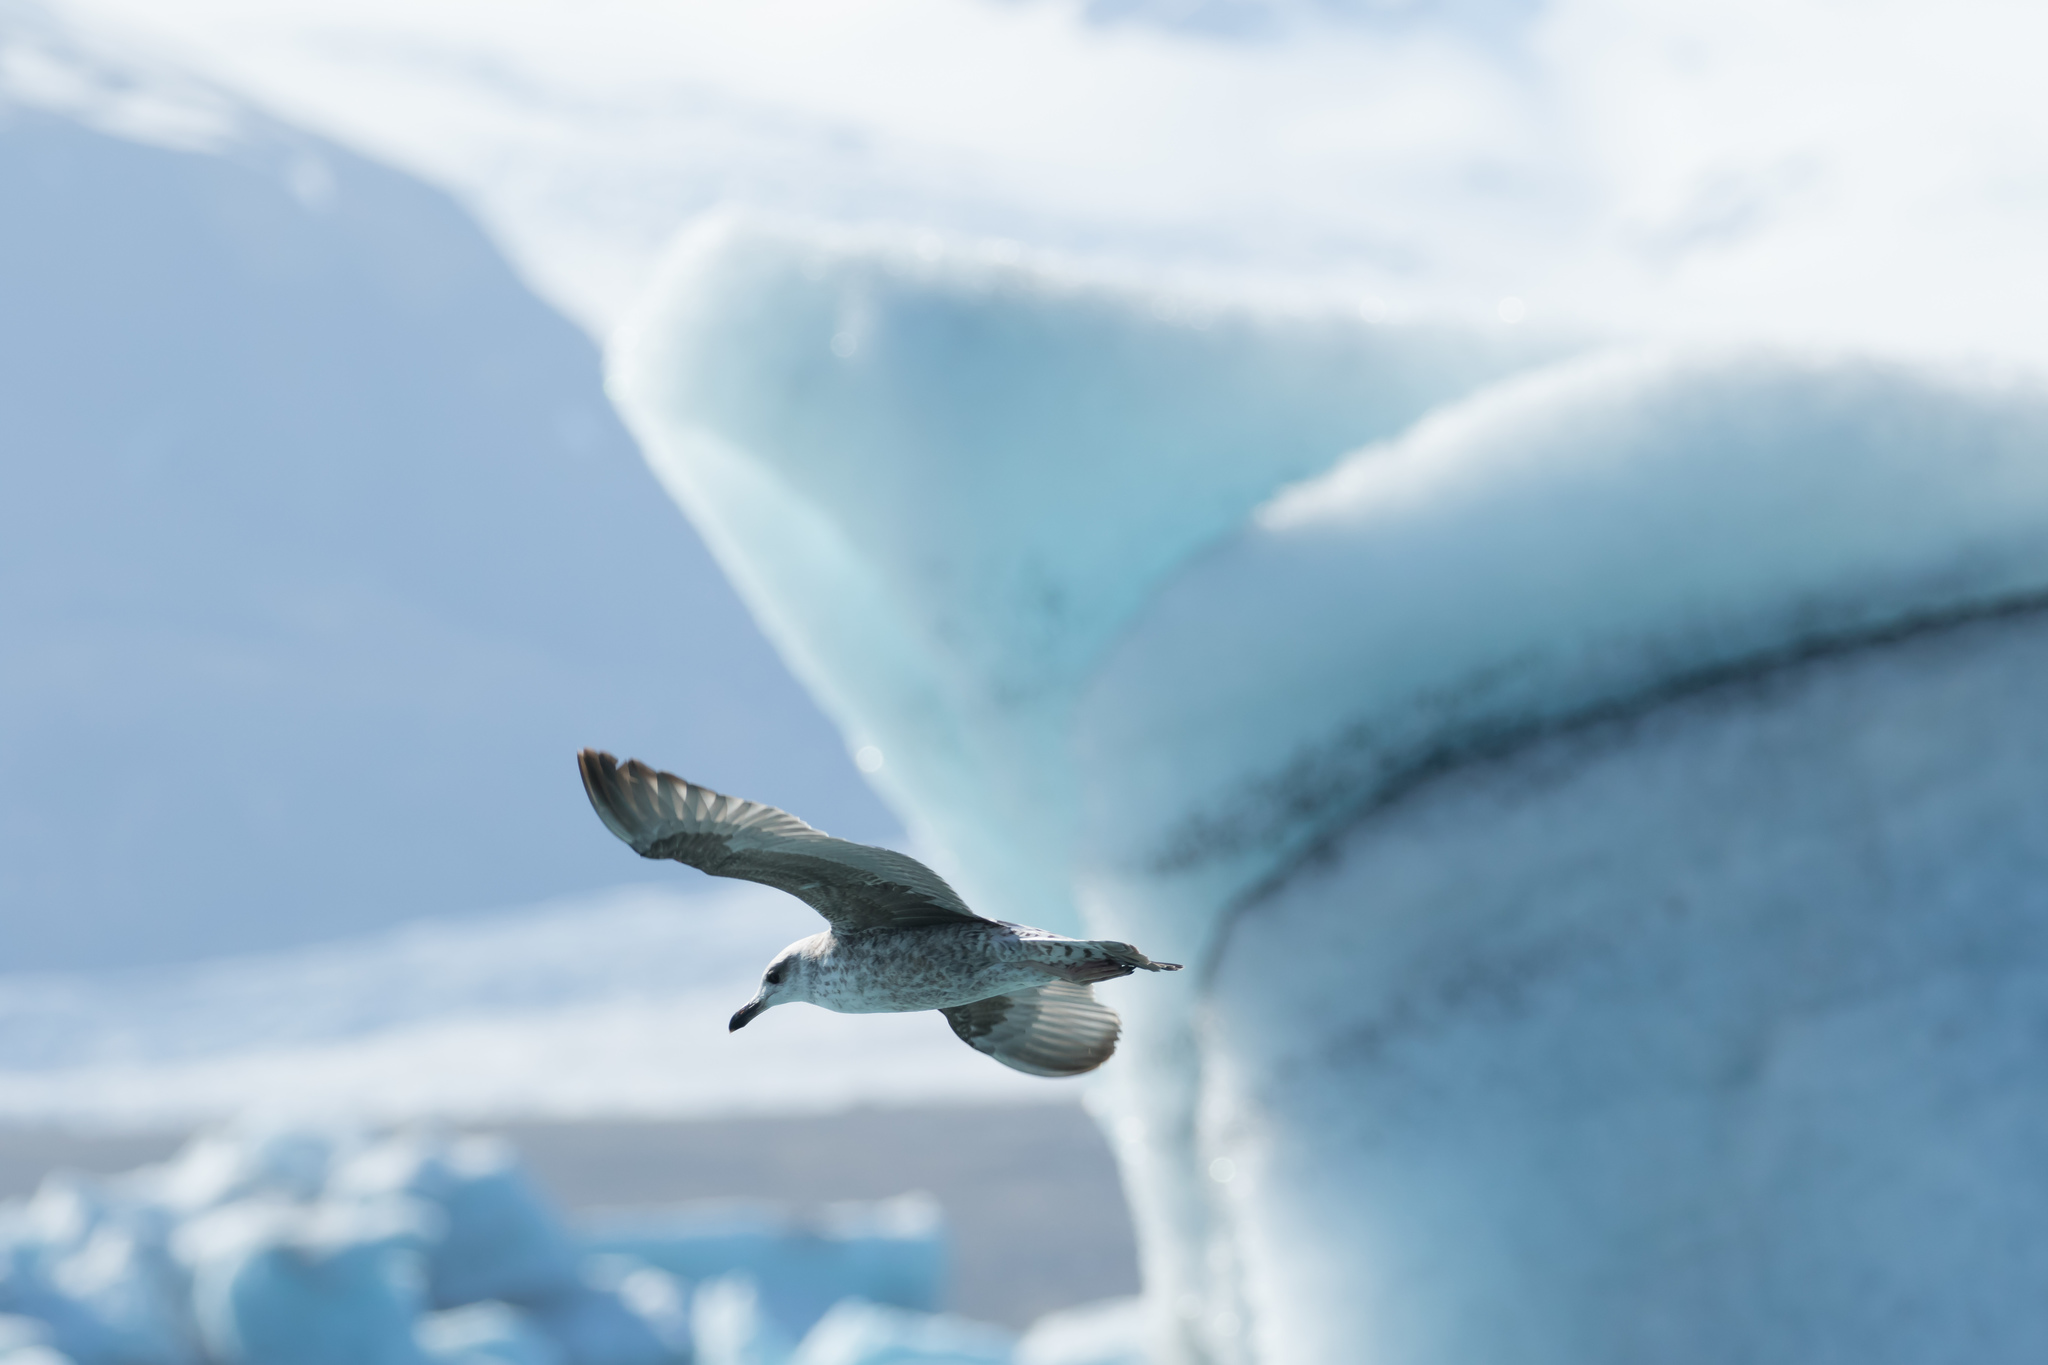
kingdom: Animalia
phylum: Chordata
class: Aves
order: Charadriiformes
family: Laridae
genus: Larus
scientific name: Larus fuscus
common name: Lesser black-backed gull
